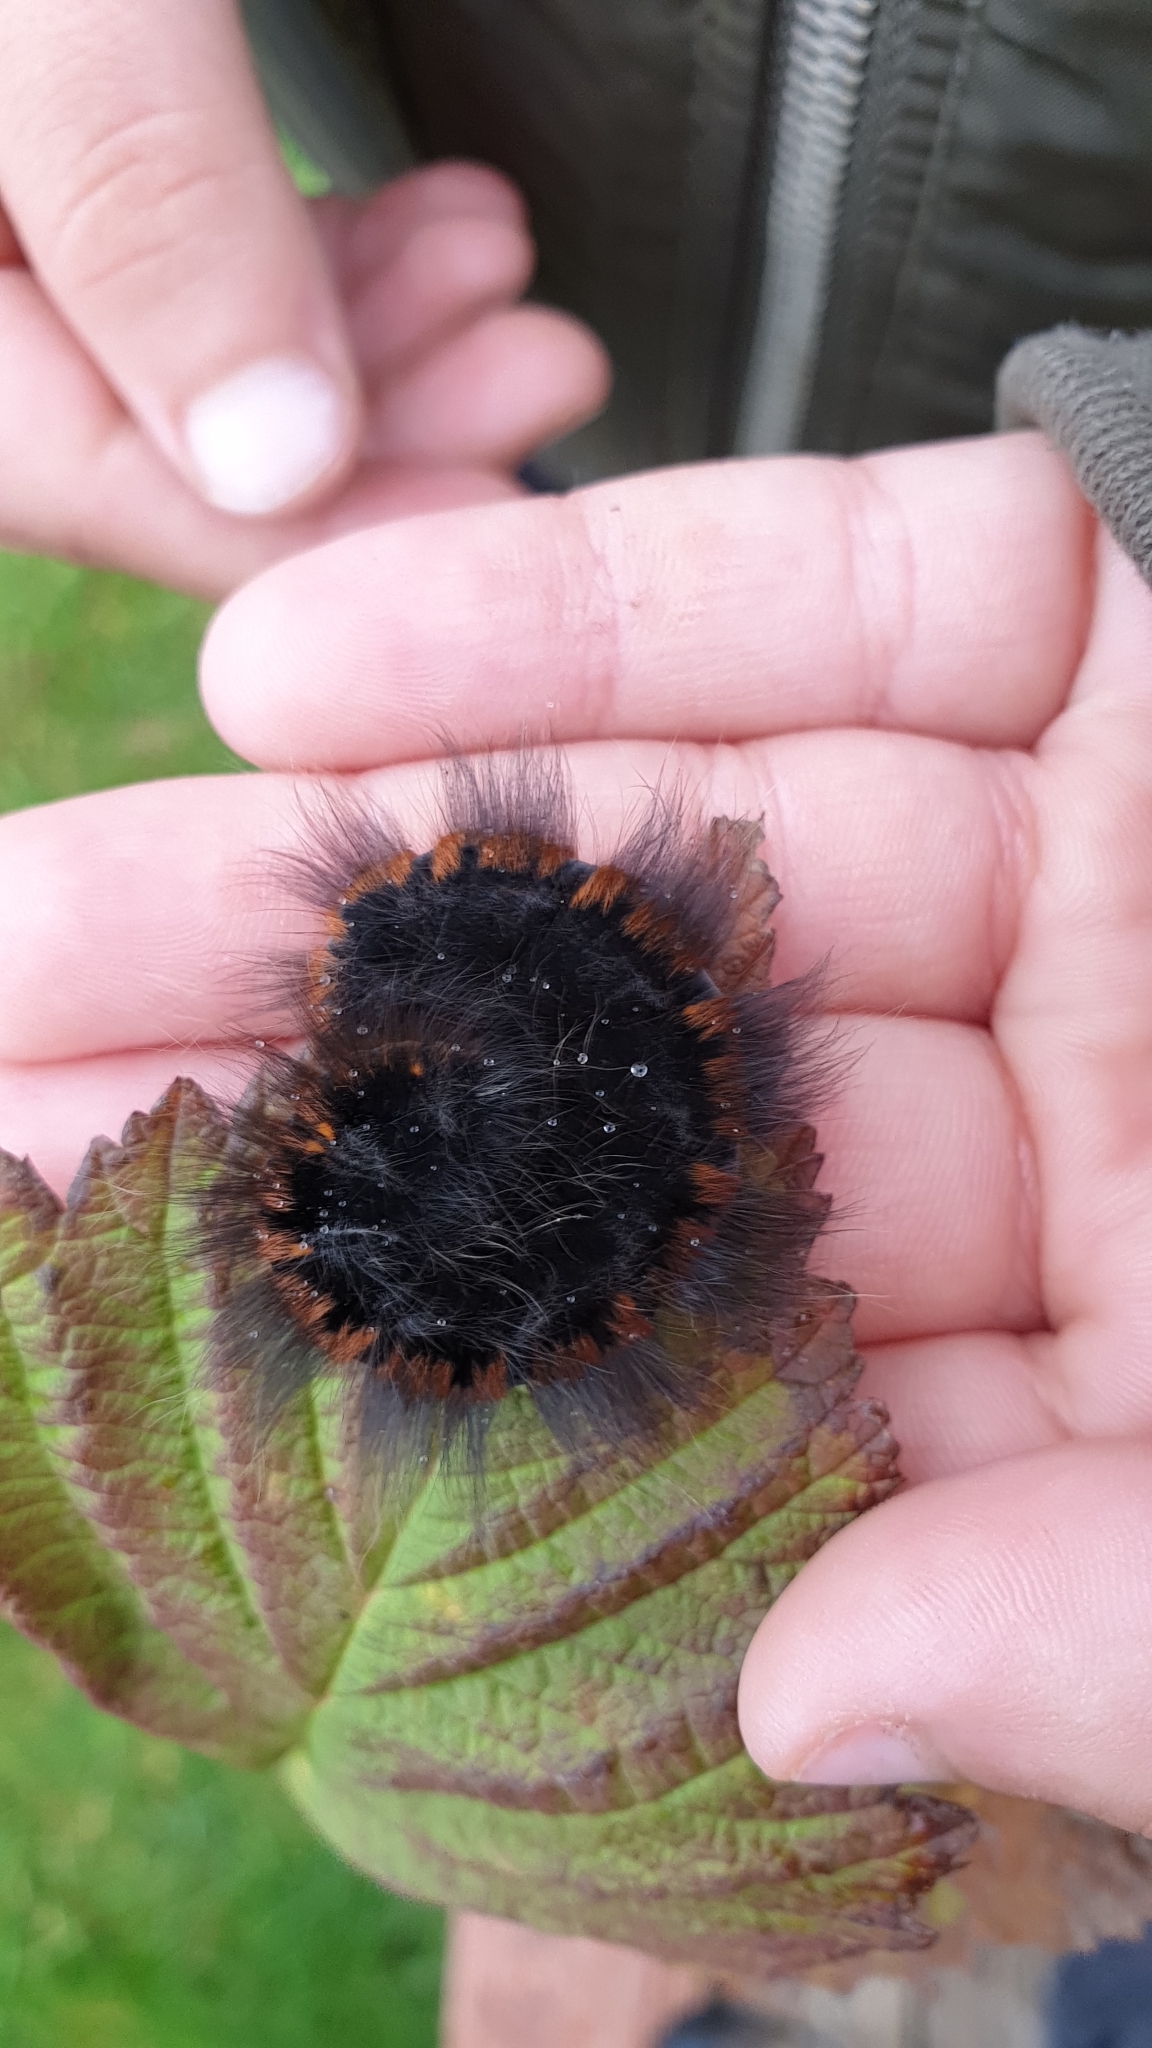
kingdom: Animalia
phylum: Arthropoda
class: Insecta
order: Lepidoptera
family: Lasiocampidae
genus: Macrothylacia
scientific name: Macrothylacia rubi
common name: Fox moth
